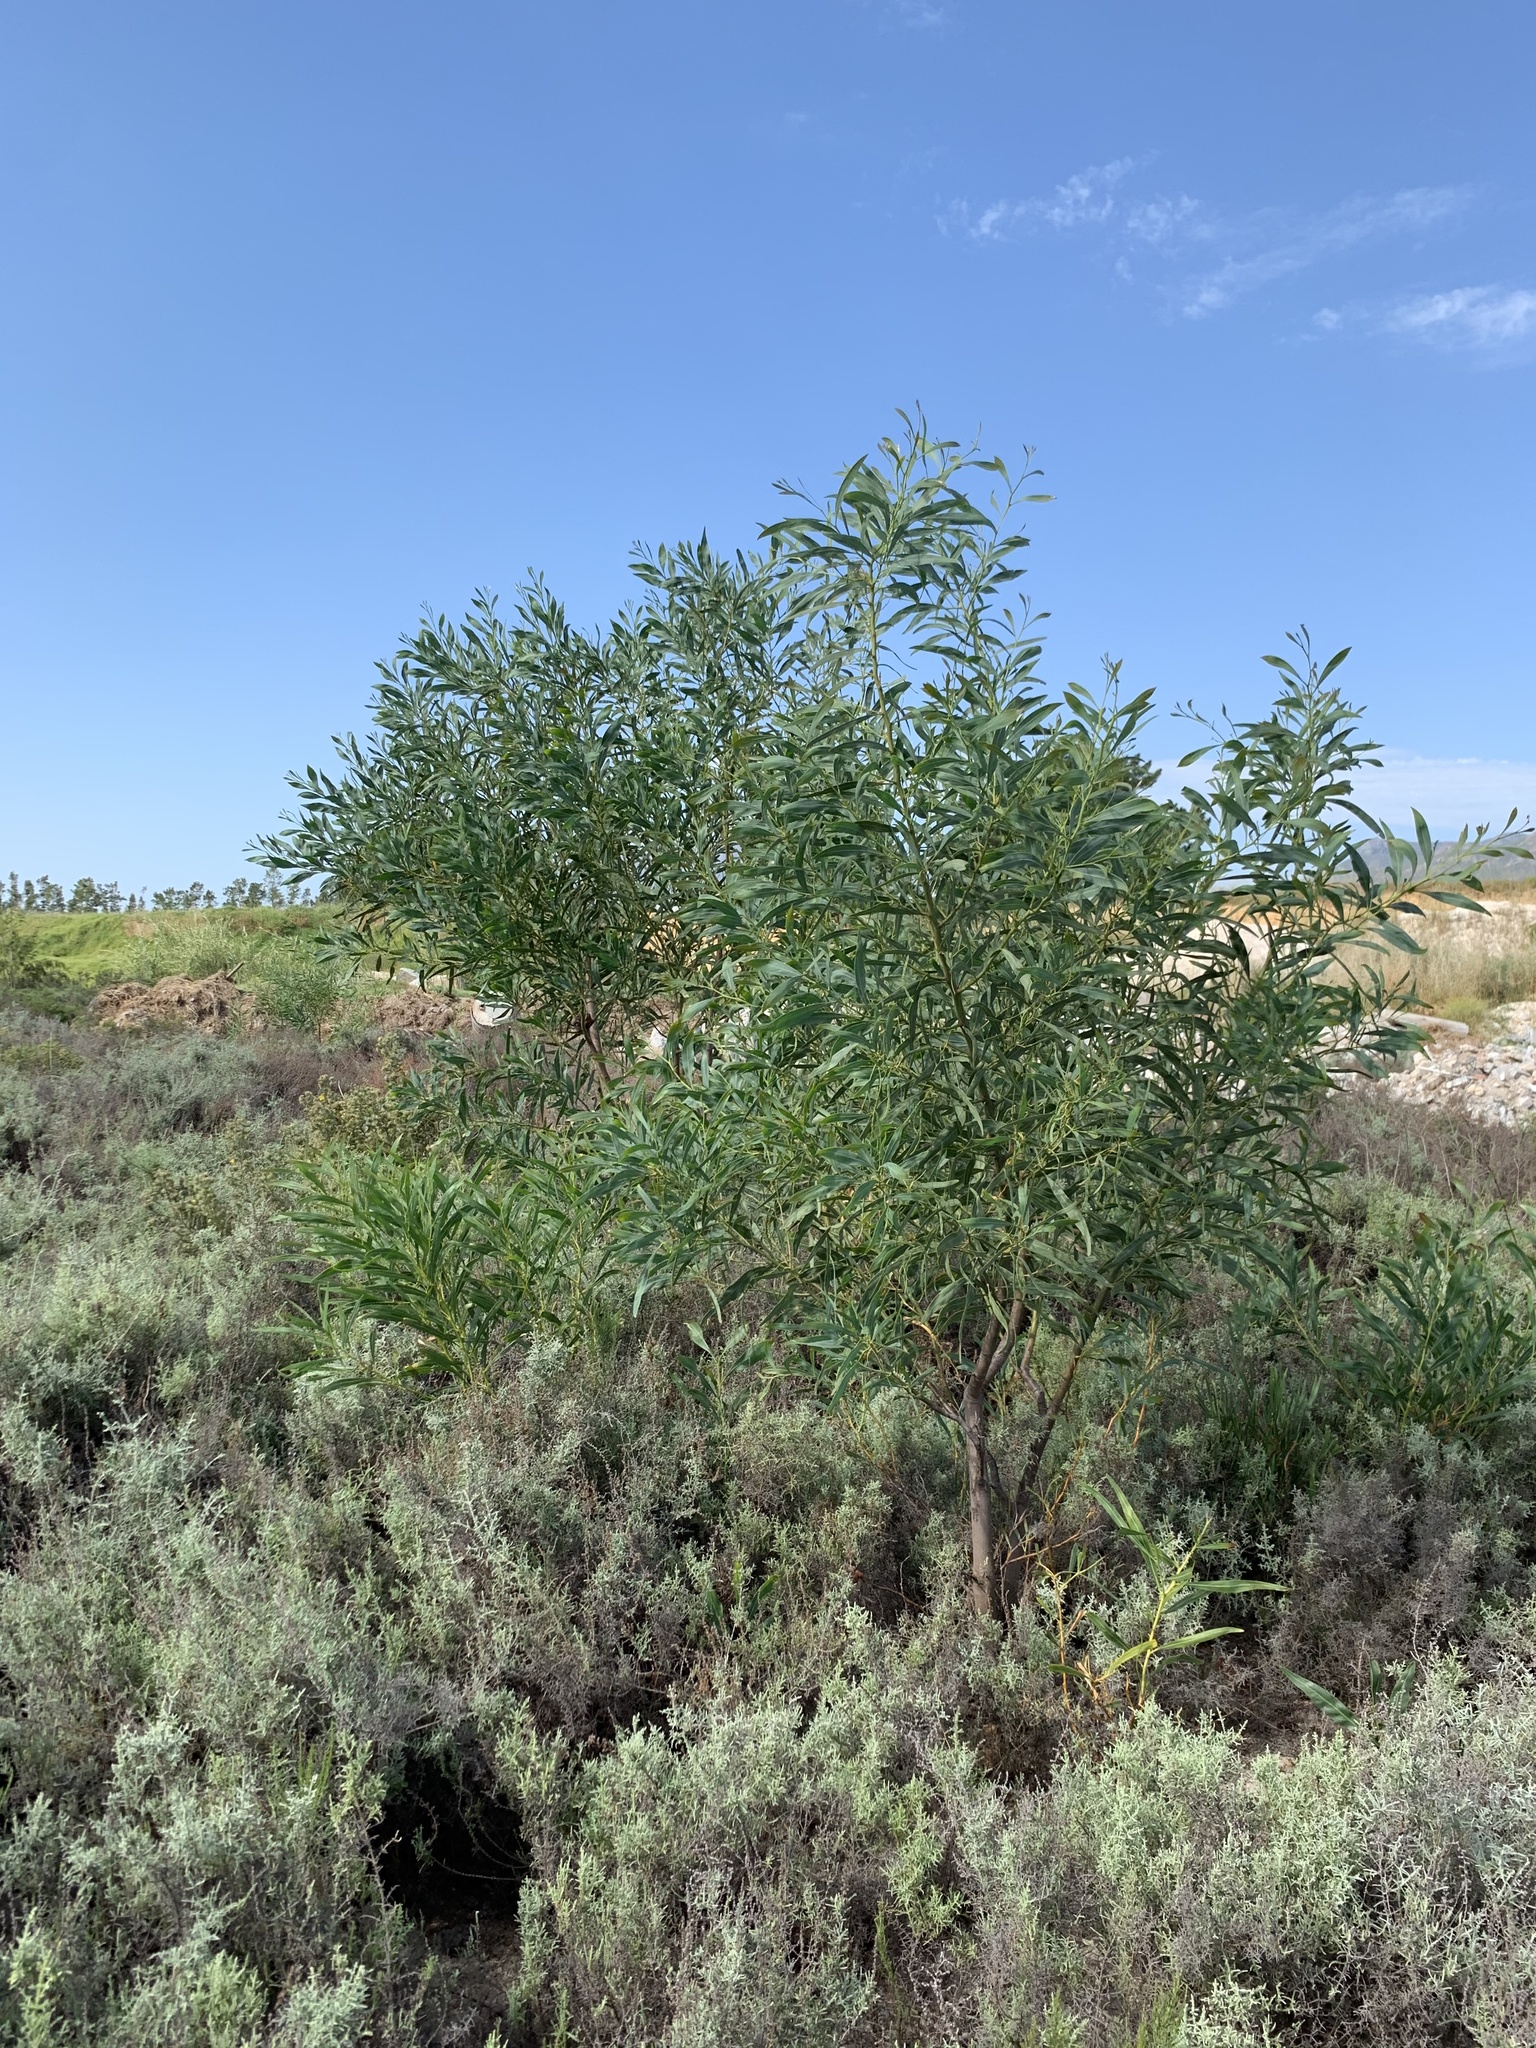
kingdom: Plantae
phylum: Tracheophyta
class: Magnoliopsida
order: Fabales
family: Fabaceae
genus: Acacia
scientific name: Acacia saligna
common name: Orange wattle
